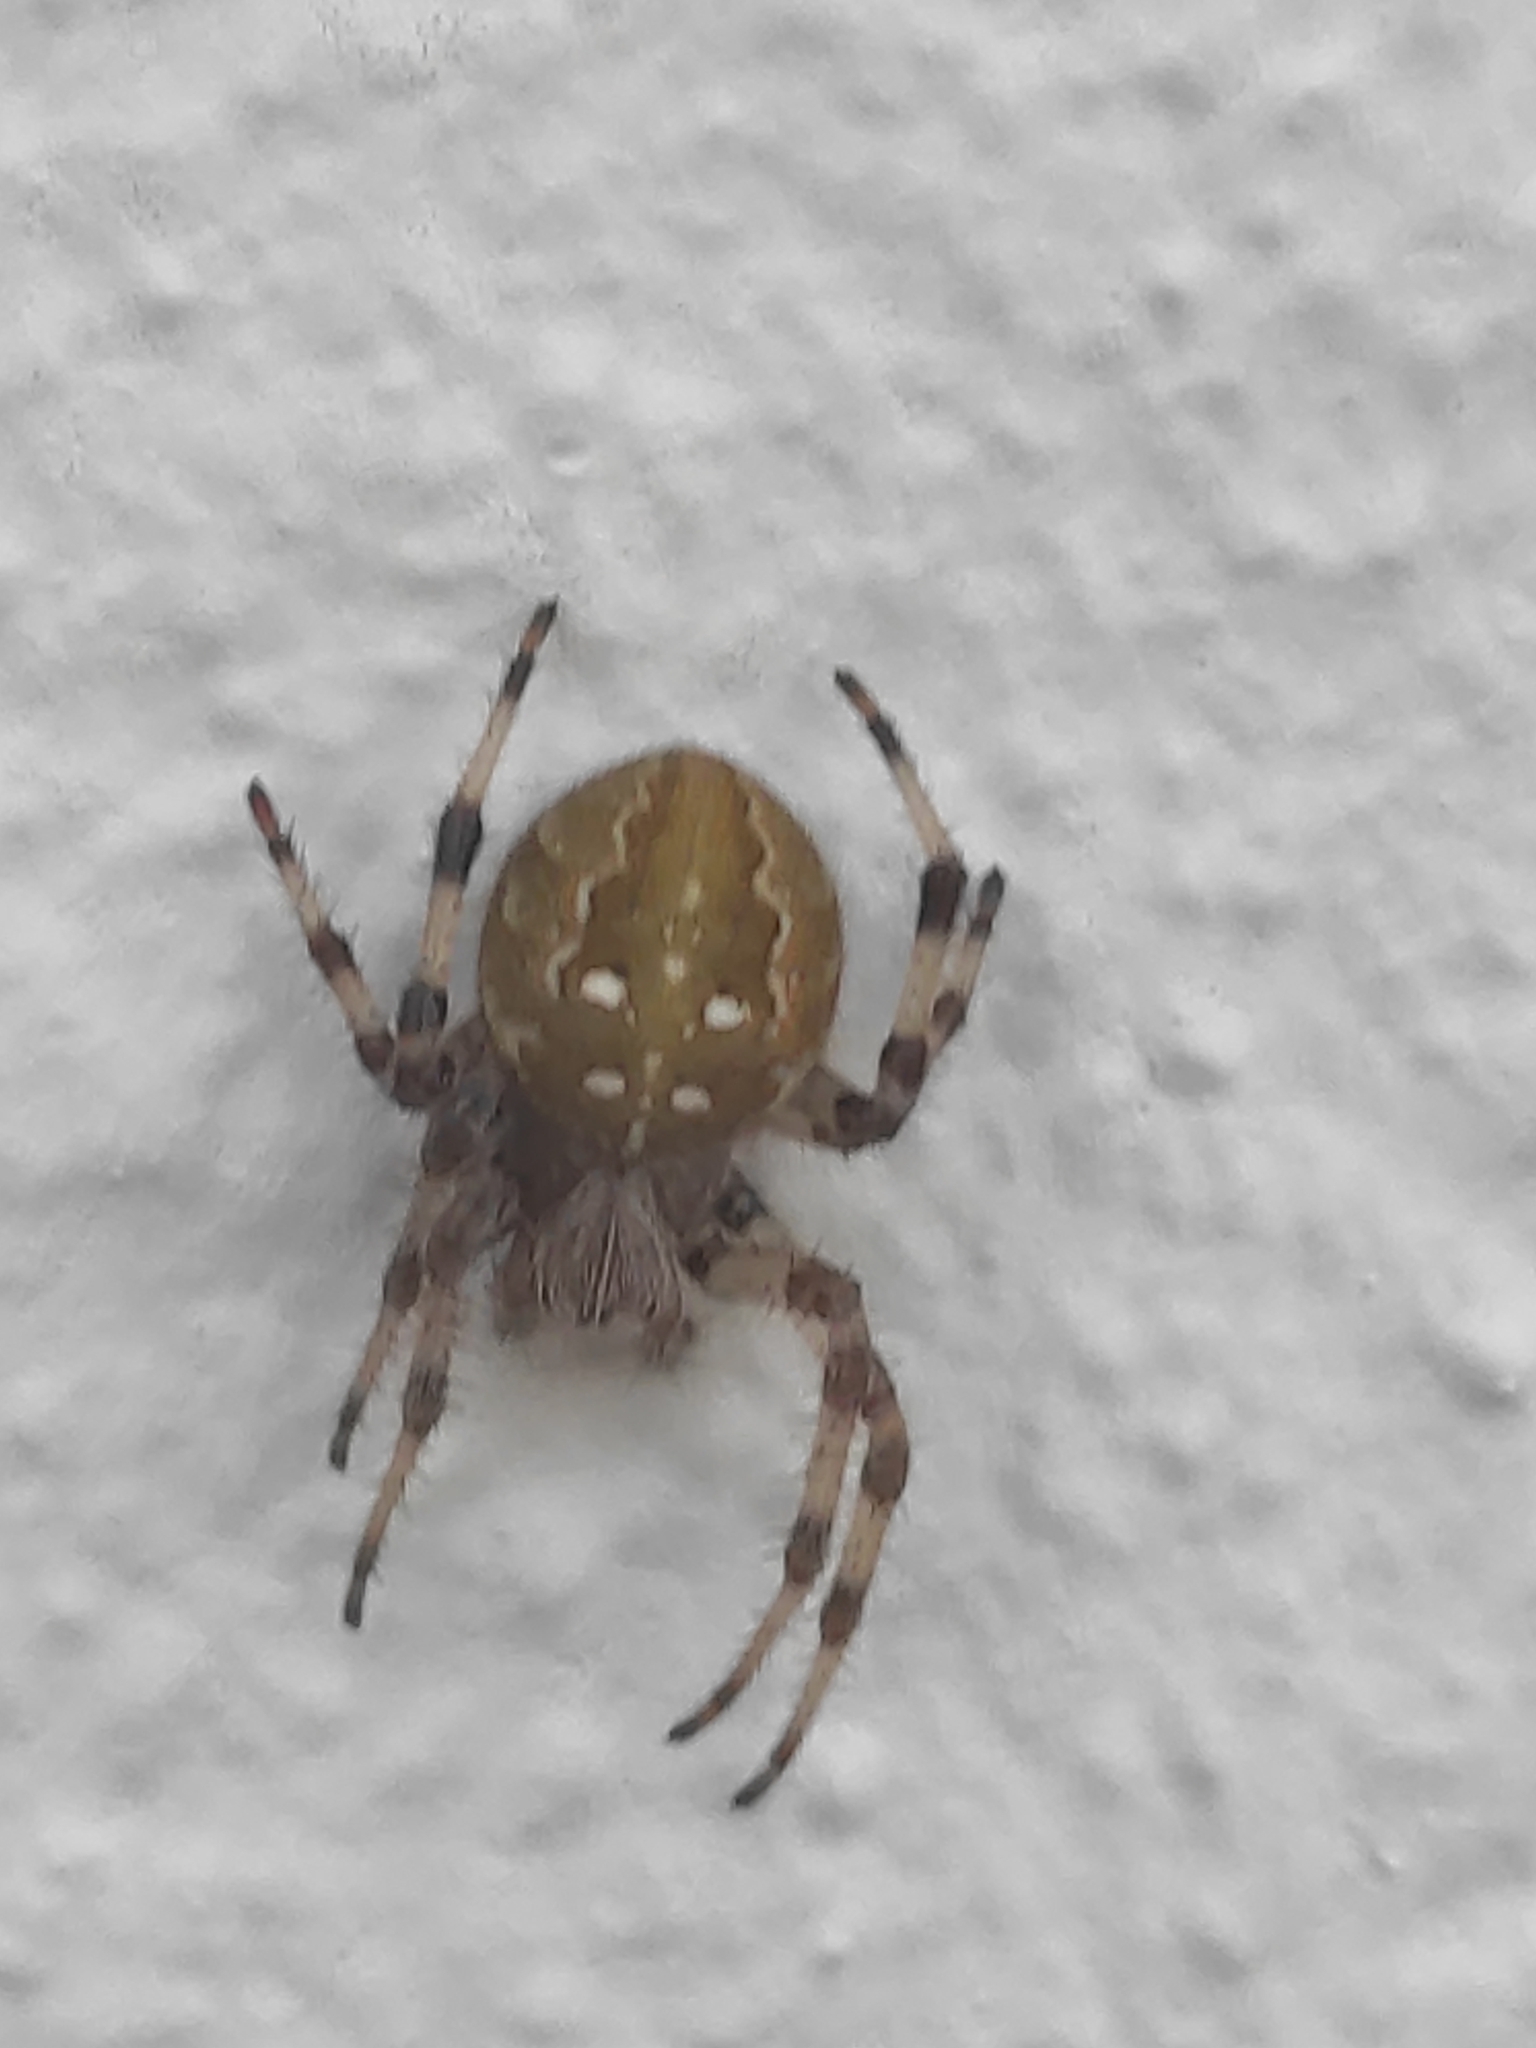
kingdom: Animalia
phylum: Arthropoda
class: Arachnida
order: Araneae
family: Araneidae
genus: Araneus
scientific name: Araneus quadratus
